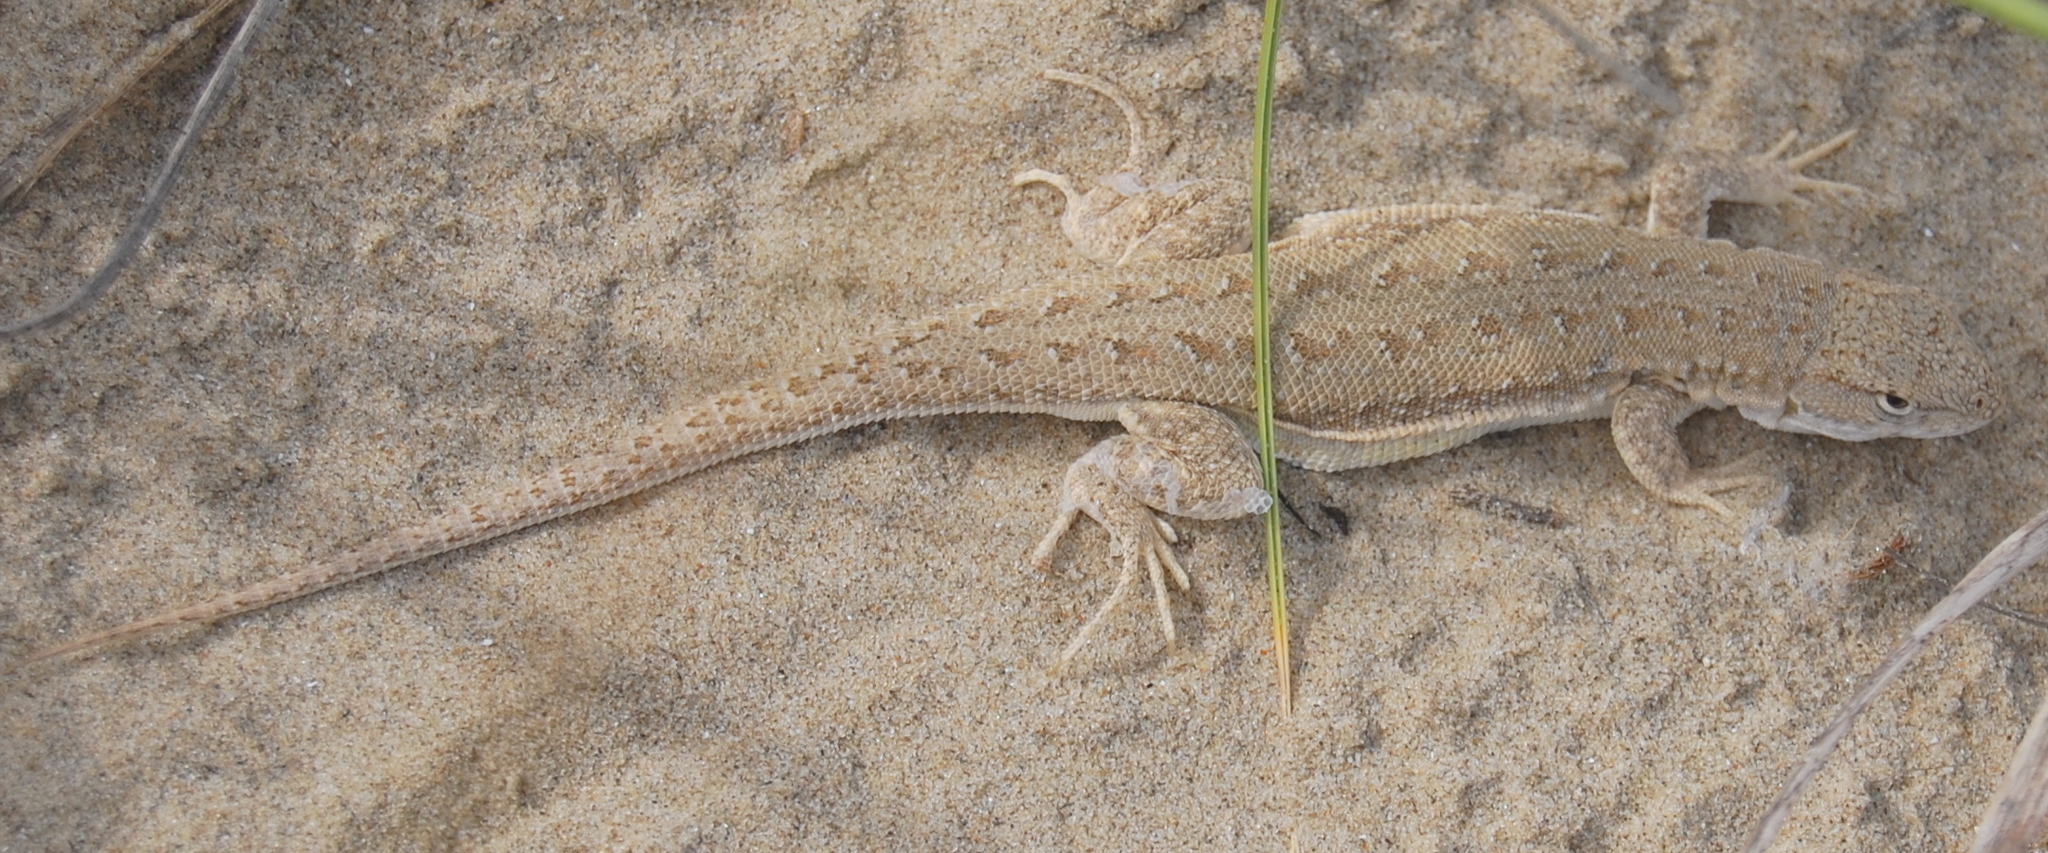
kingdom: Animalia
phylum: Chordata
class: Squamata
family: Liolaemidae
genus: Liolaemus
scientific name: Liolaemus occipitalis
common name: Skull tree iguana
